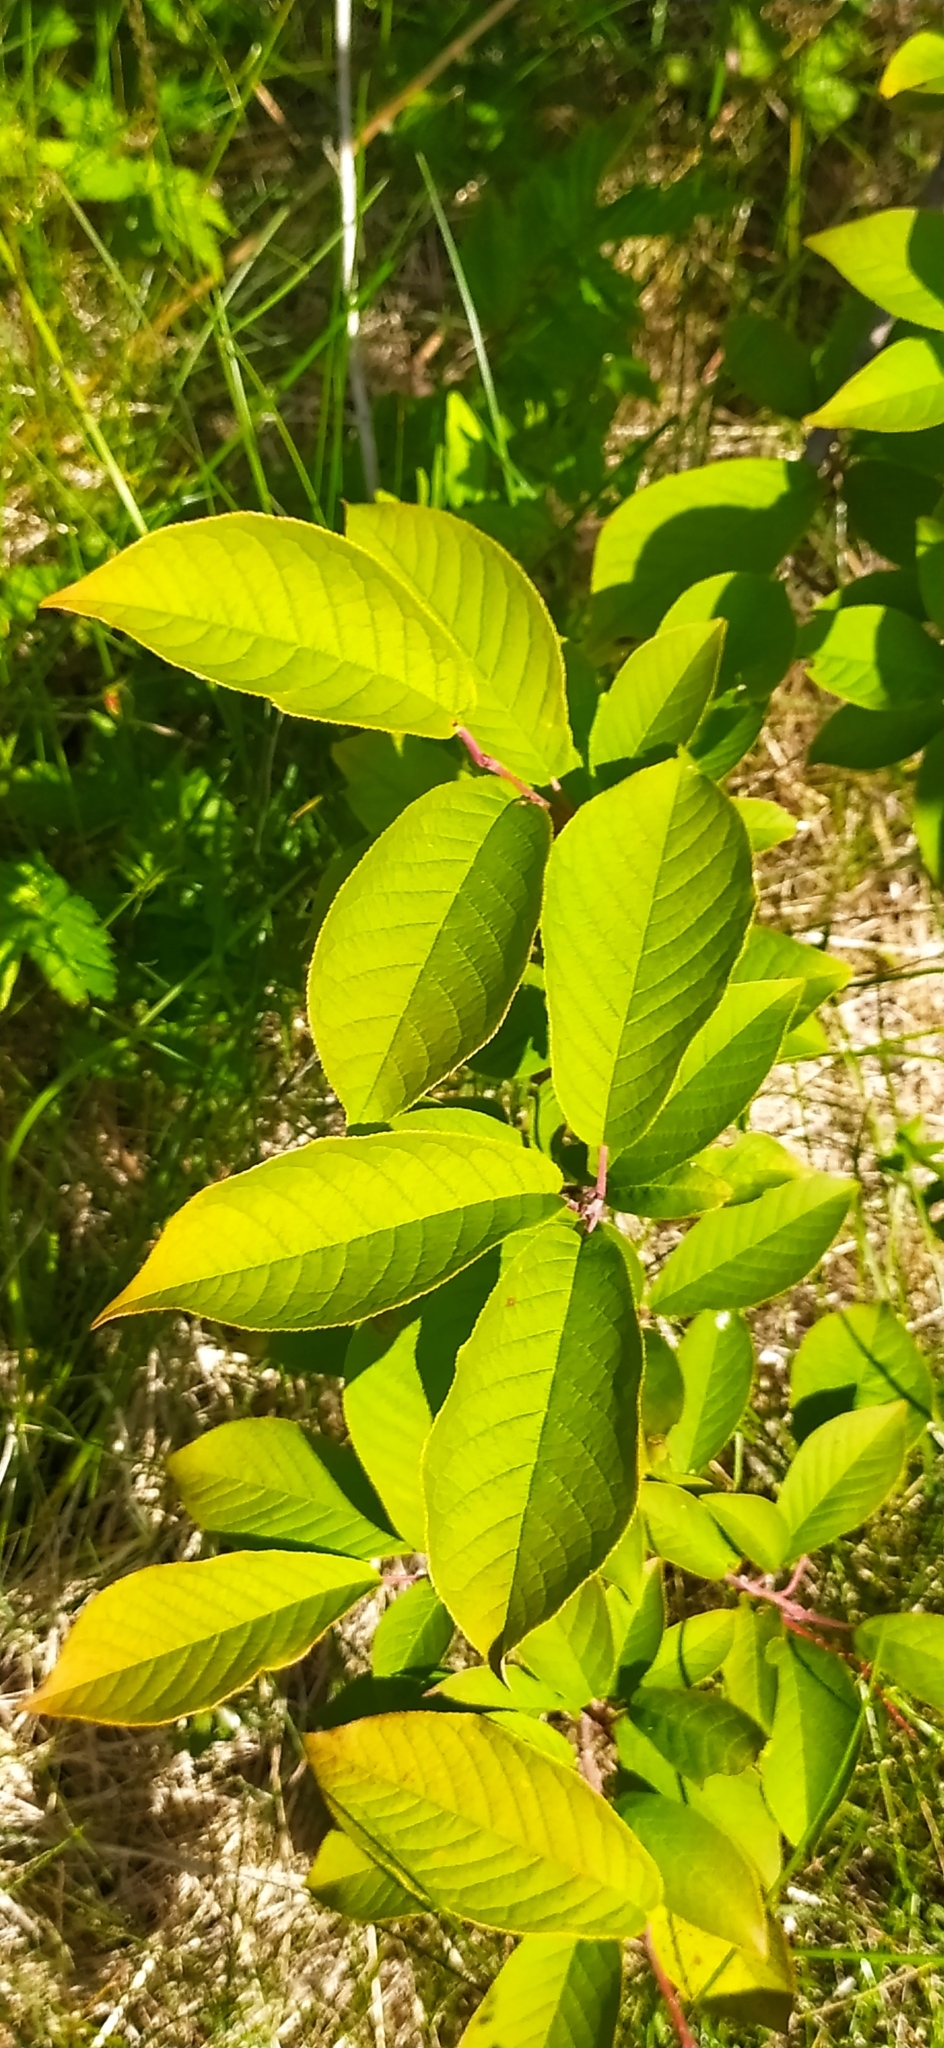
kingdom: Plantae
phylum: Tracheophyta
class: Magnoliopsida
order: Rosales
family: Rosaceae
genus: Prunus
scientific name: Prunus padus
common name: Bird cherry
